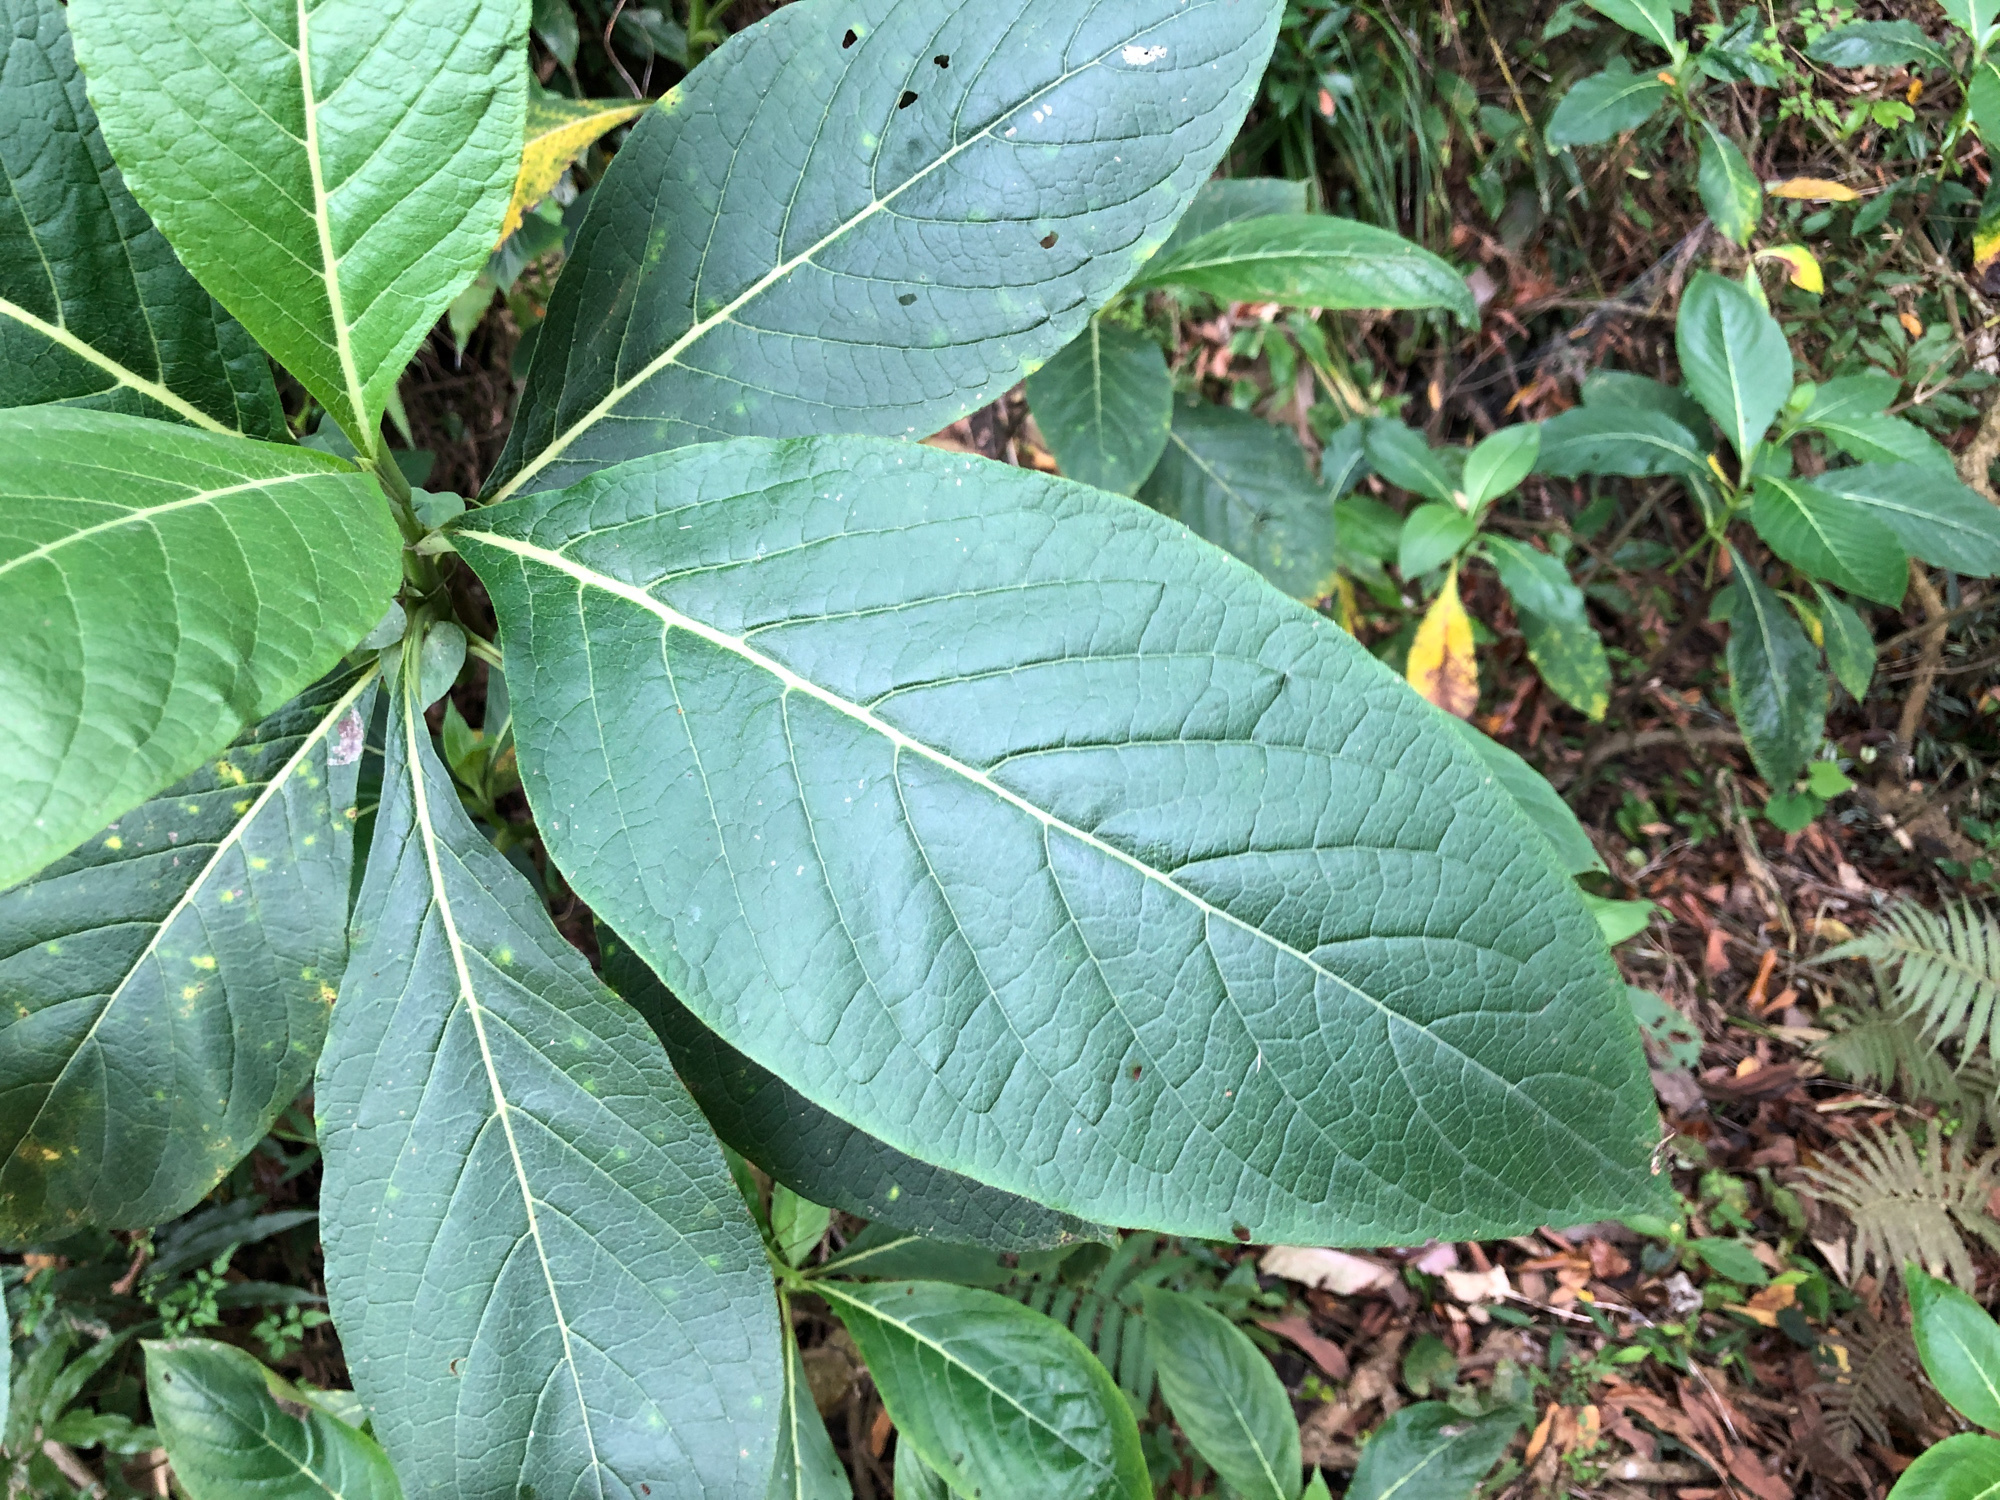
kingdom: Plantae
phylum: Tracheophyta
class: Magnoliopsida
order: Boraginales
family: Boraginaceae
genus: Trichodesma
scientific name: Trichodesma calycosum
